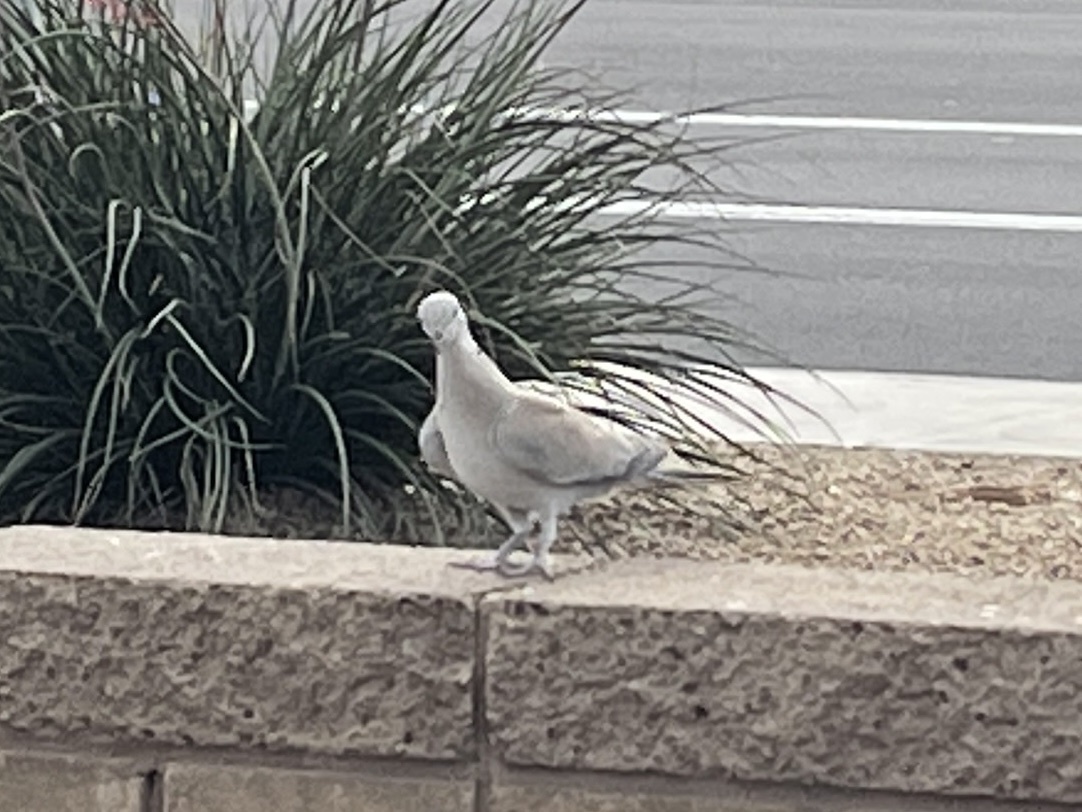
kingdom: Animalia
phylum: Chordata
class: Aves
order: Columbiformes
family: Columbidae
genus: Streptopelia
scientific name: Streptopelia decaocto
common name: Eurasian collared dove
